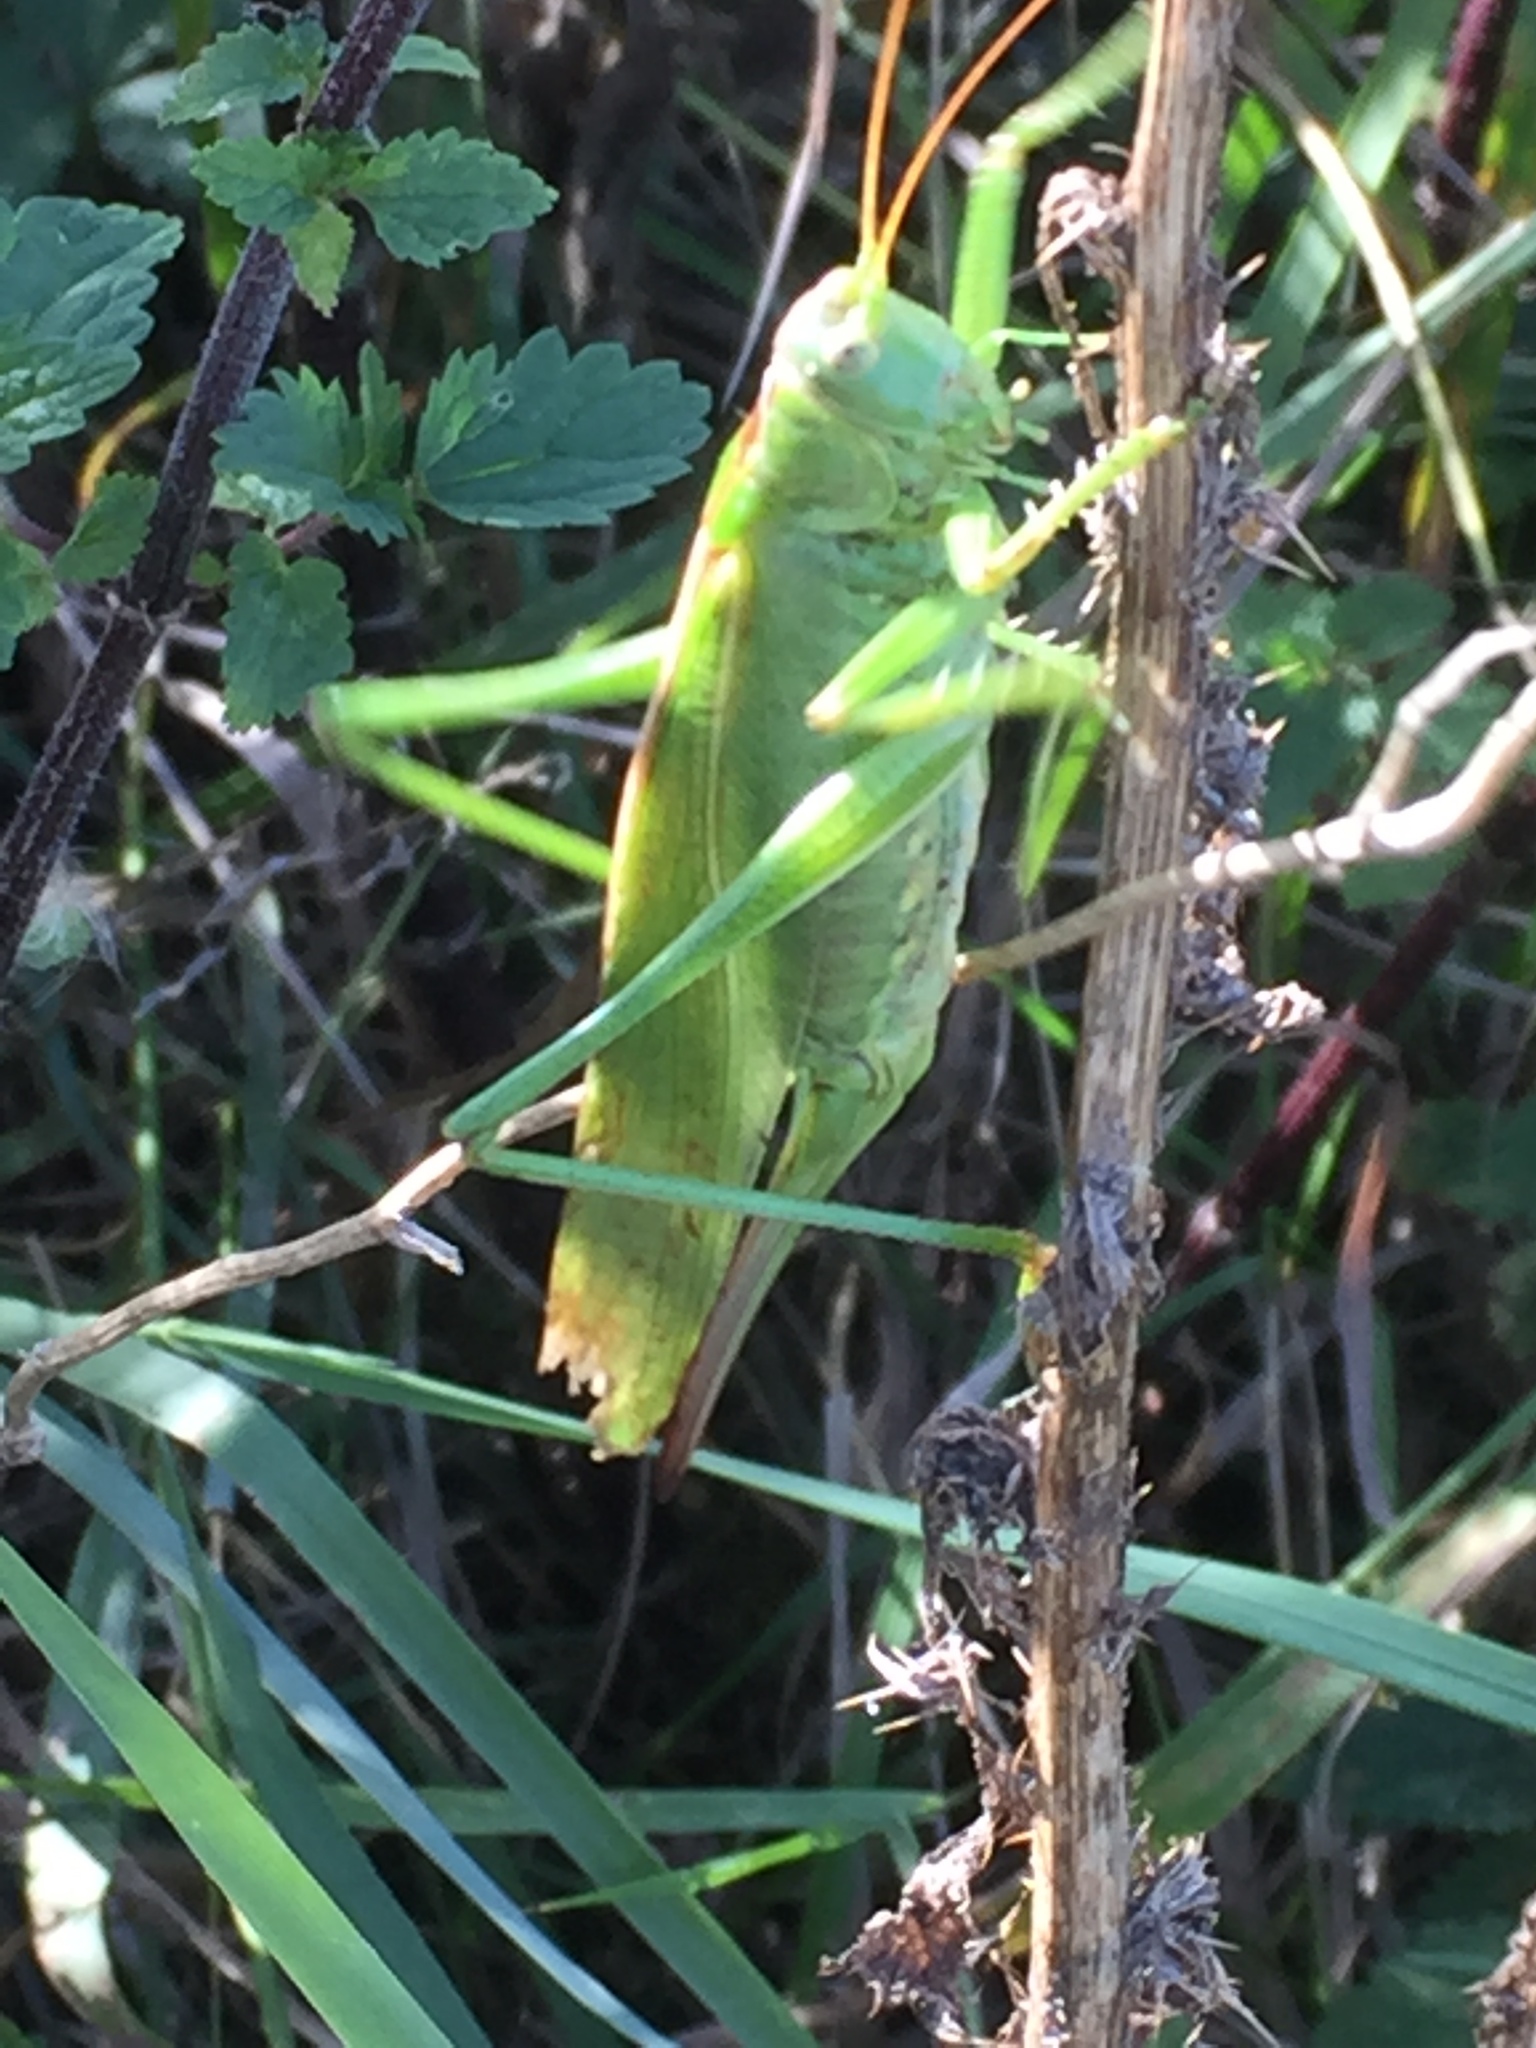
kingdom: Animalia
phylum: Arthropoda
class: Insecta
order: Orthoptera
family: Tettigoniidae
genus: Tettigonia
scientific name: Tettigonia viridissima
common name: Great green bush-cricket
